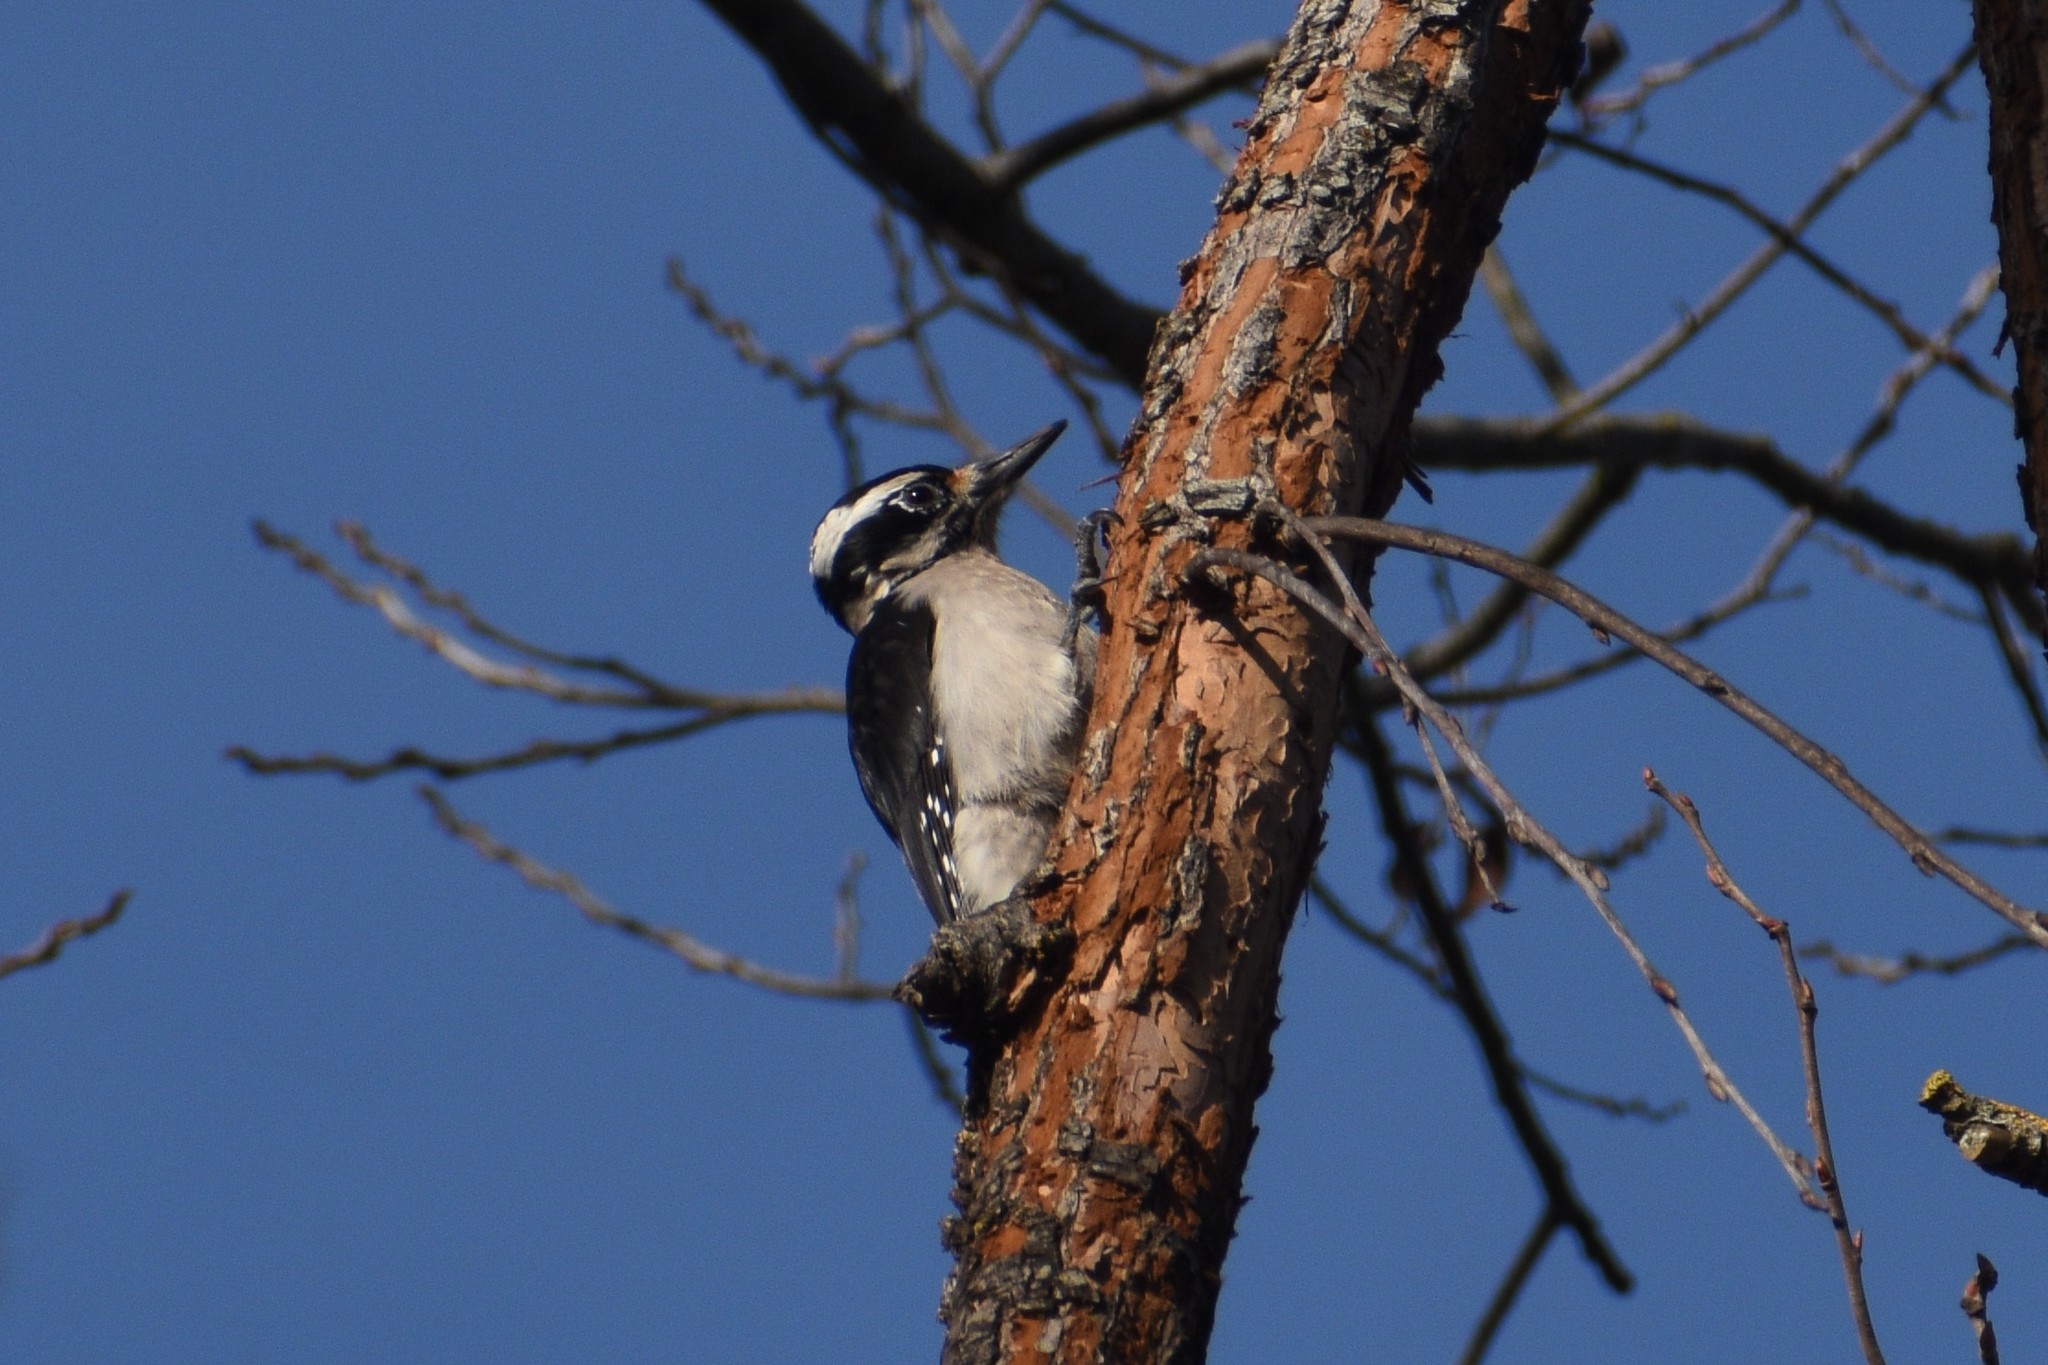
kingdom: Animalia
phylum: Chordata
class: Aves
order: Piciformes
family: Picidae
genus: Leuconotopicus
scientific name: Leuconotopicus villosus
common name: Hairy woodpecker
